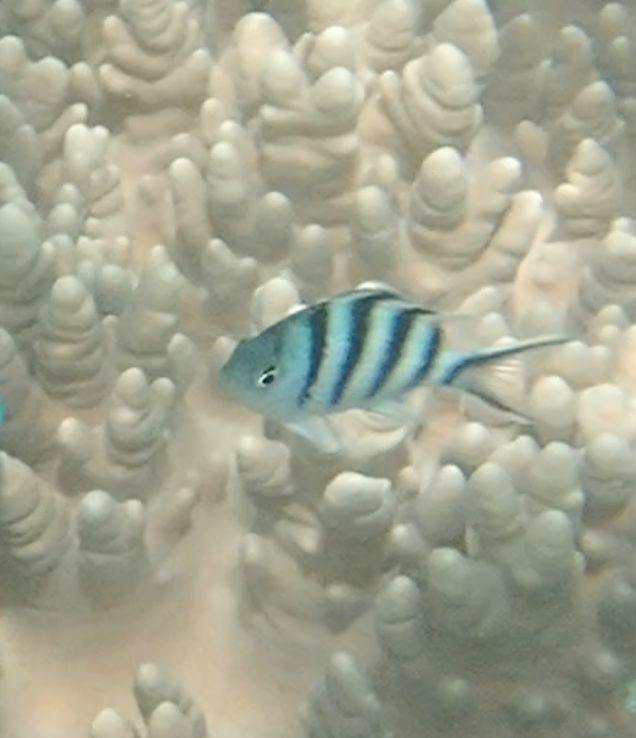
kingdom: Animalia
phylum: Chordata
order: Perciformes
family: Pomacentridae
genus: Abudefduf
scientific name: Abudefduf sexfasciatus
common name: Scissortail sergeant
